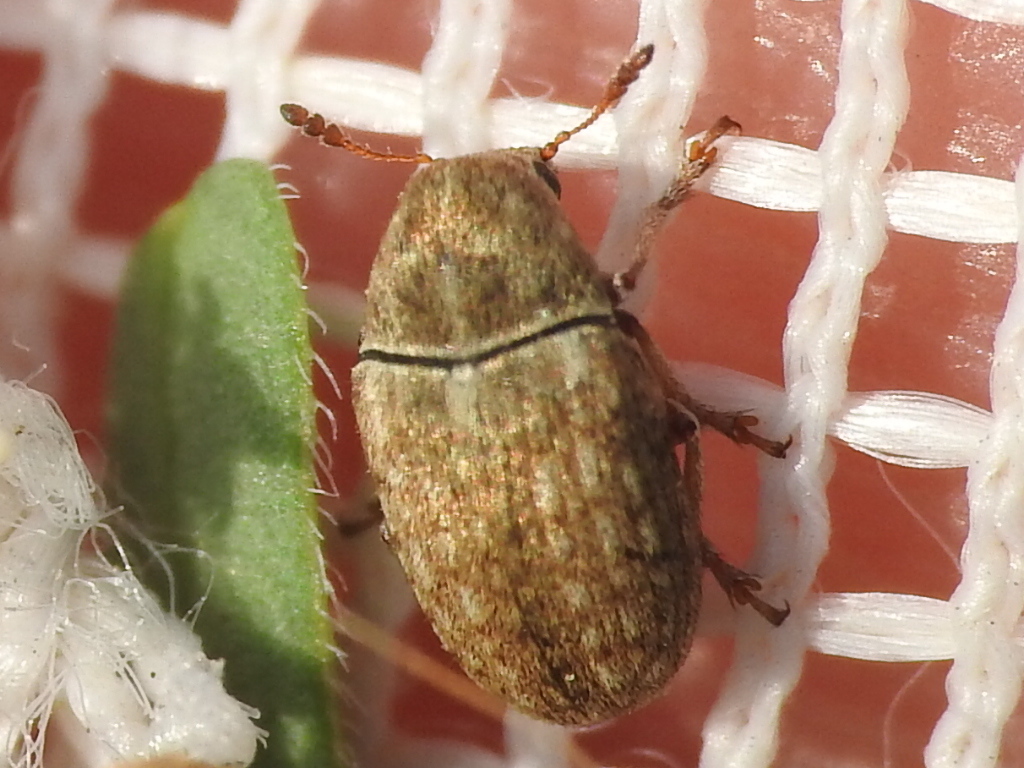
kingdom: Animalia
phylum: Arthropoda
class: Insecta
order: Coleoptera
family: Anthribidae
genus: Trigonorhinus
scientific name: Trigonorhinus limbatus
